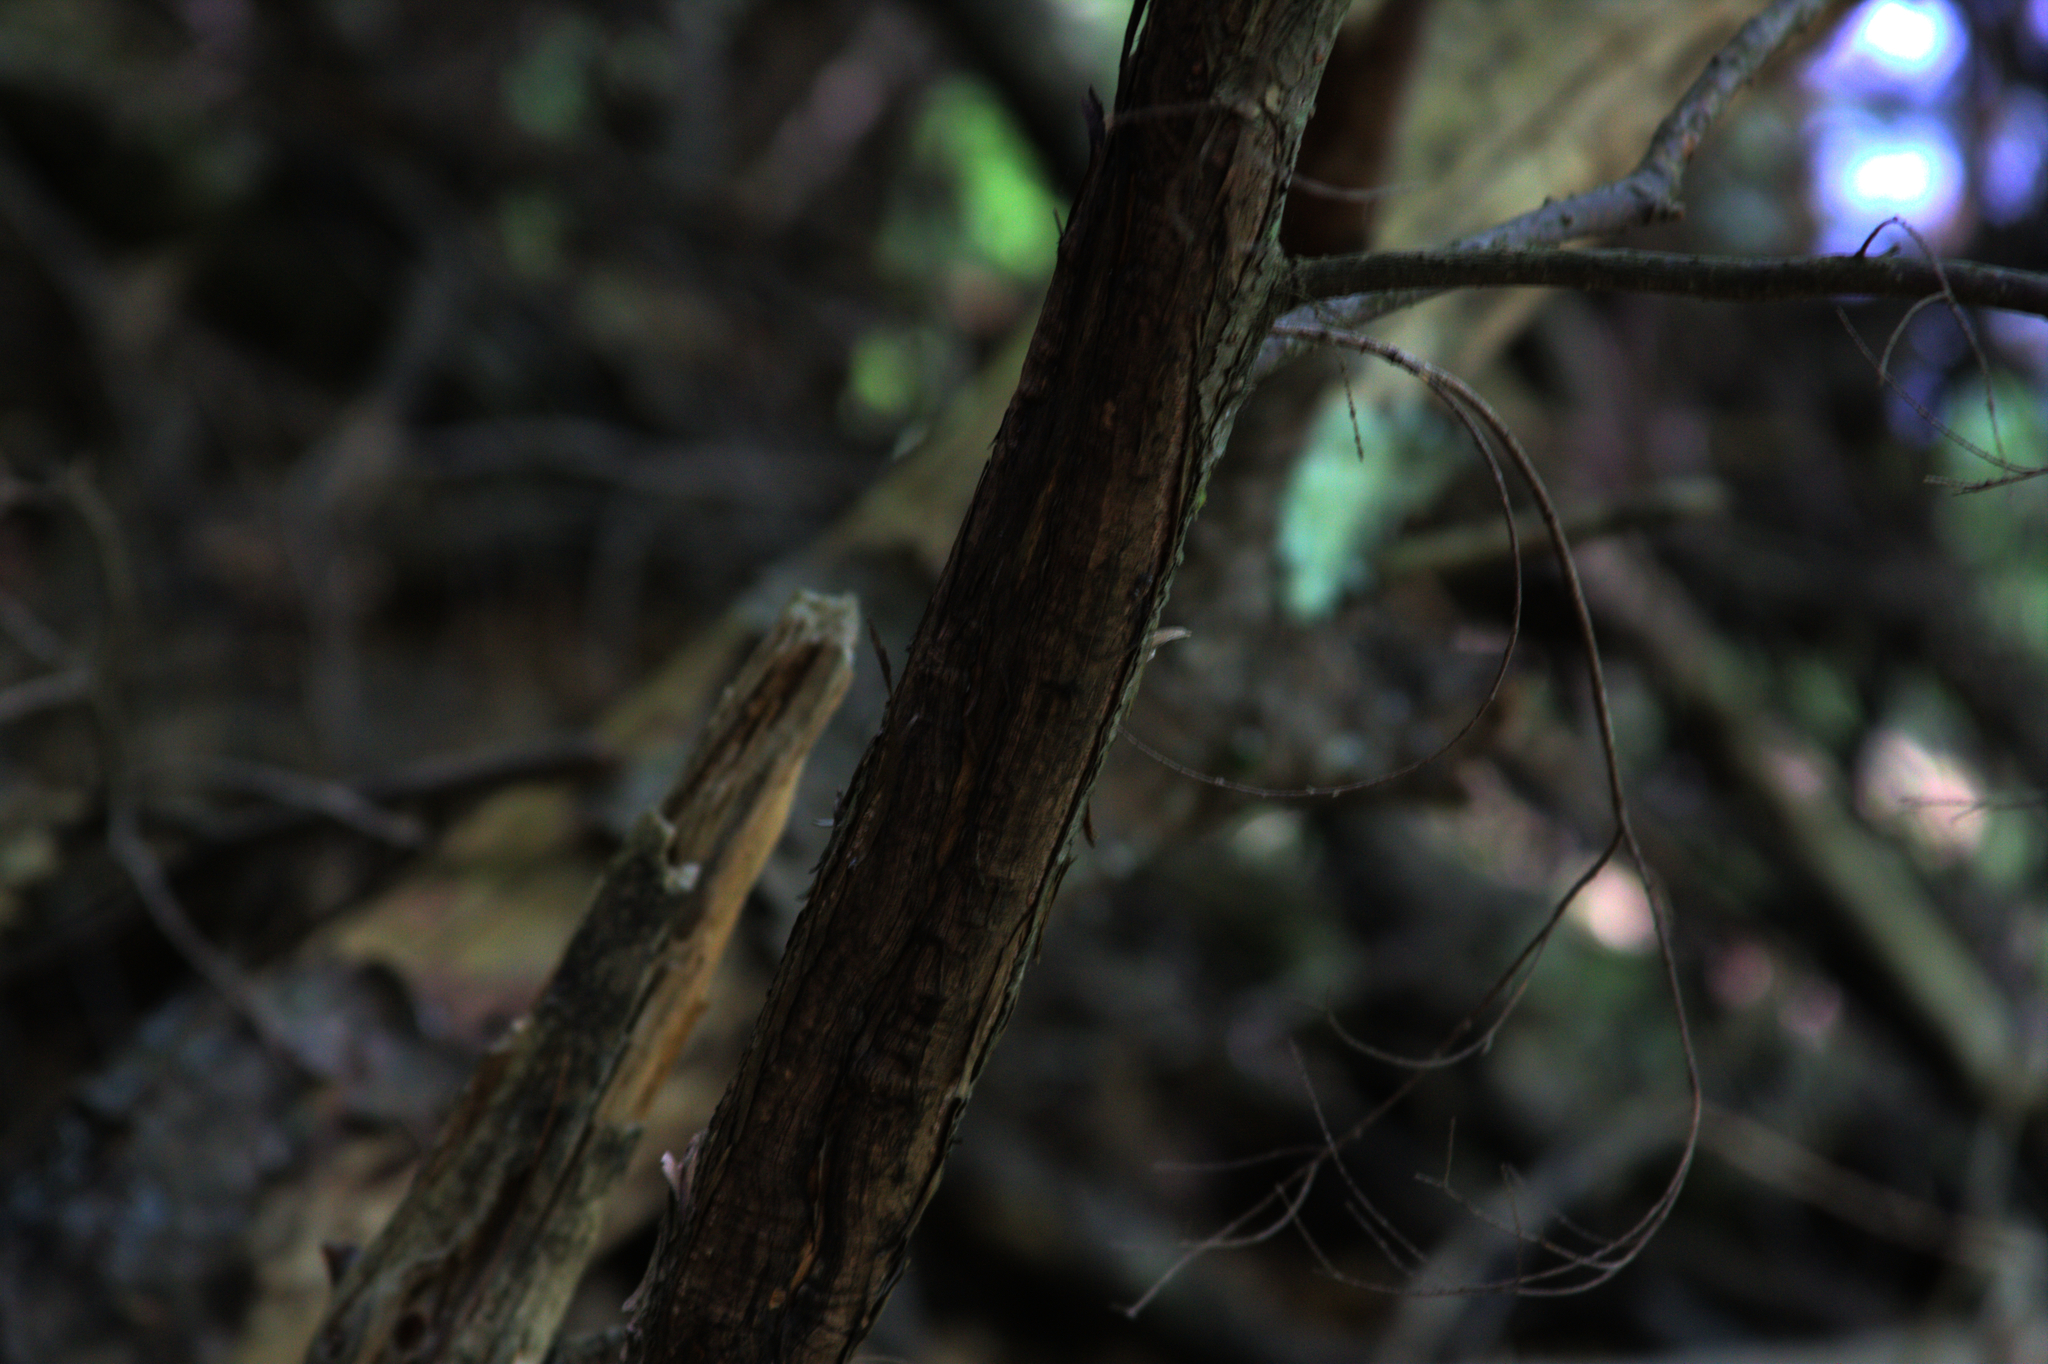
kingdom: Plantae
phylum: Tracheophyta
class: Pinopsida
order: Pinales
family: Pinaceae
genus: Tsuga
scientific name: Tsuga canadensis
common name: Eastern hemlock
